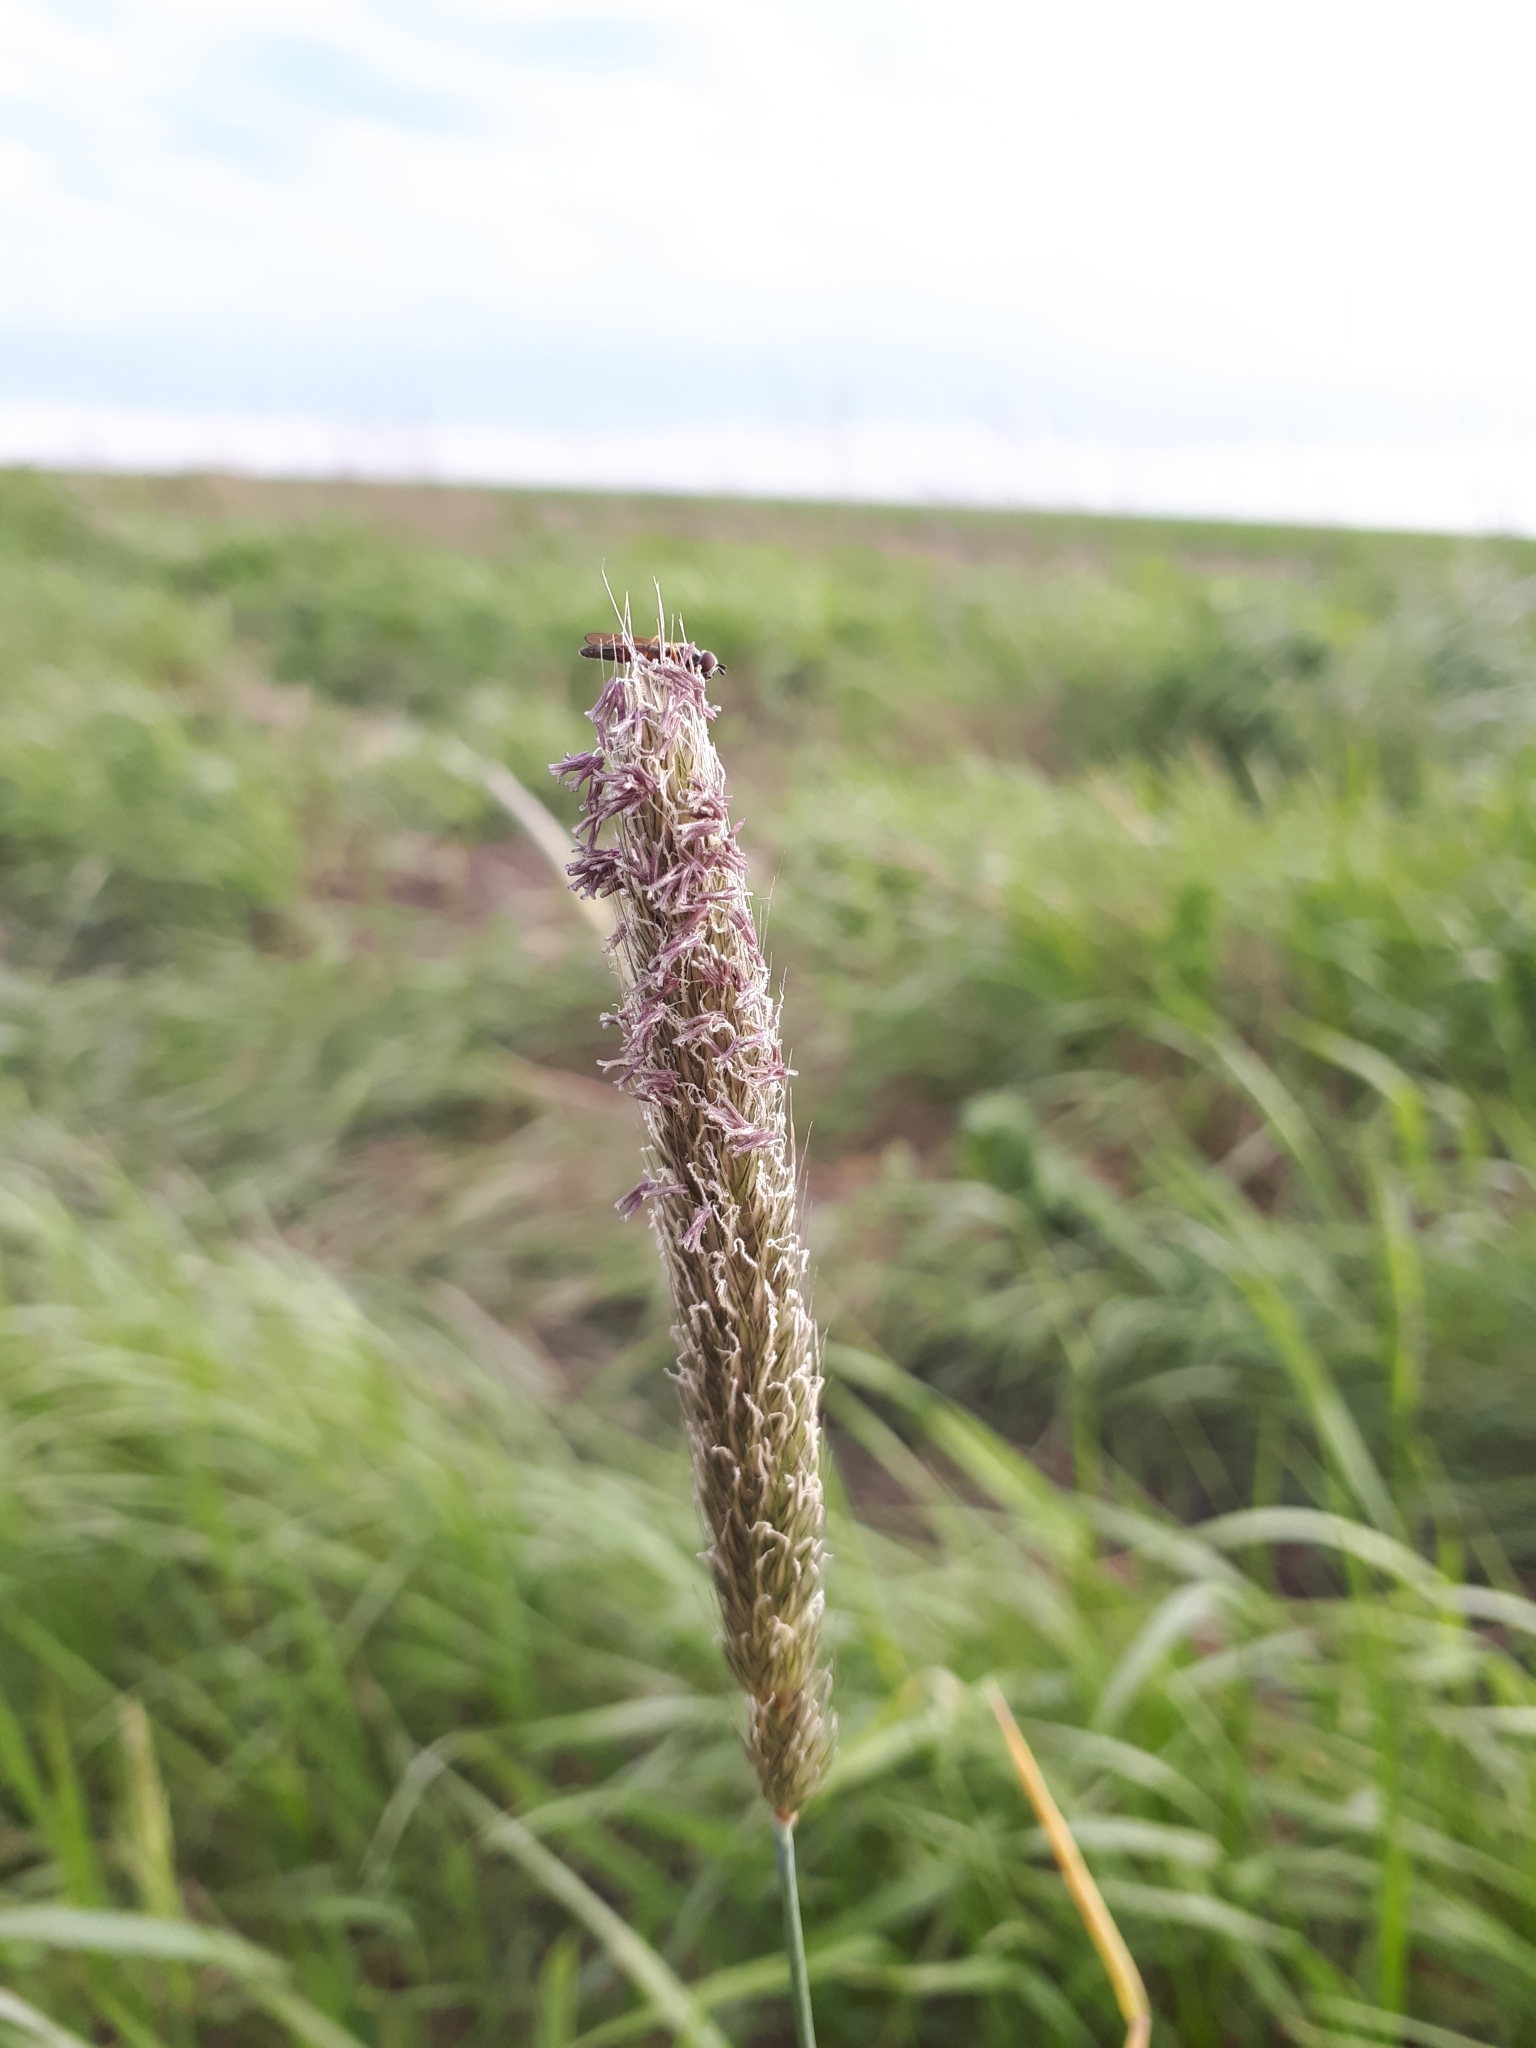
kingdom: Plantae
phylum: Tracheophyta
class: Liliopsida
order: Poales
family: Poaceae
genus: Alopecurus
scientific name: Alopecurus pratensis
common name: Meadow foxtail
